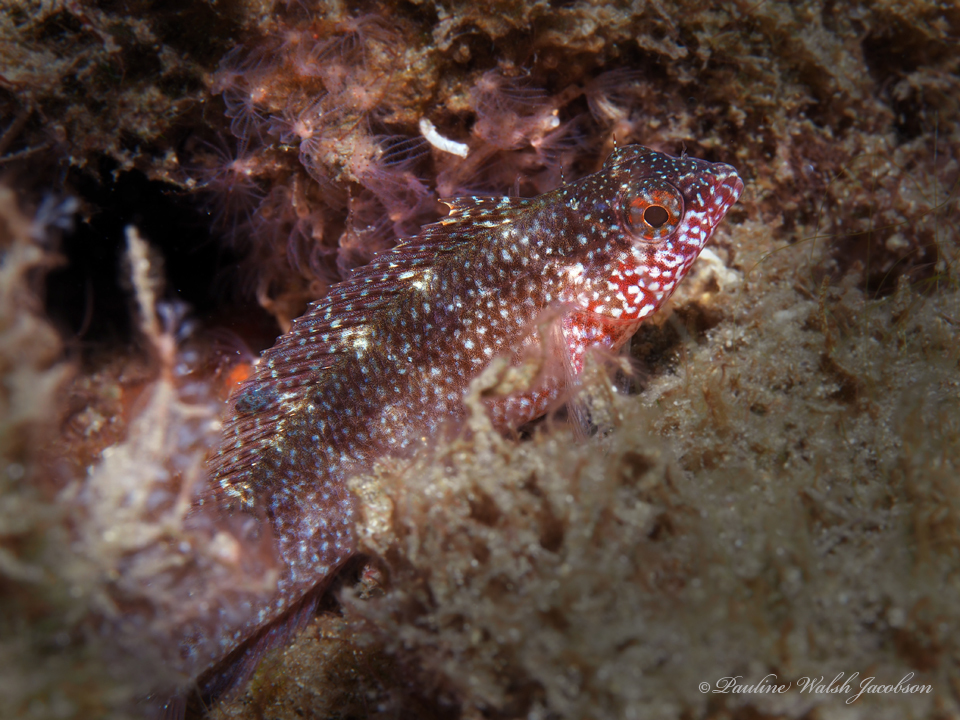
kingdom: Animalia
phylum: Chordata
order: Perciformes
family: Labrisomidae
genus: Malacoctenus
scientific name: Malacoctenus macropus
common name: Rosy blenny
